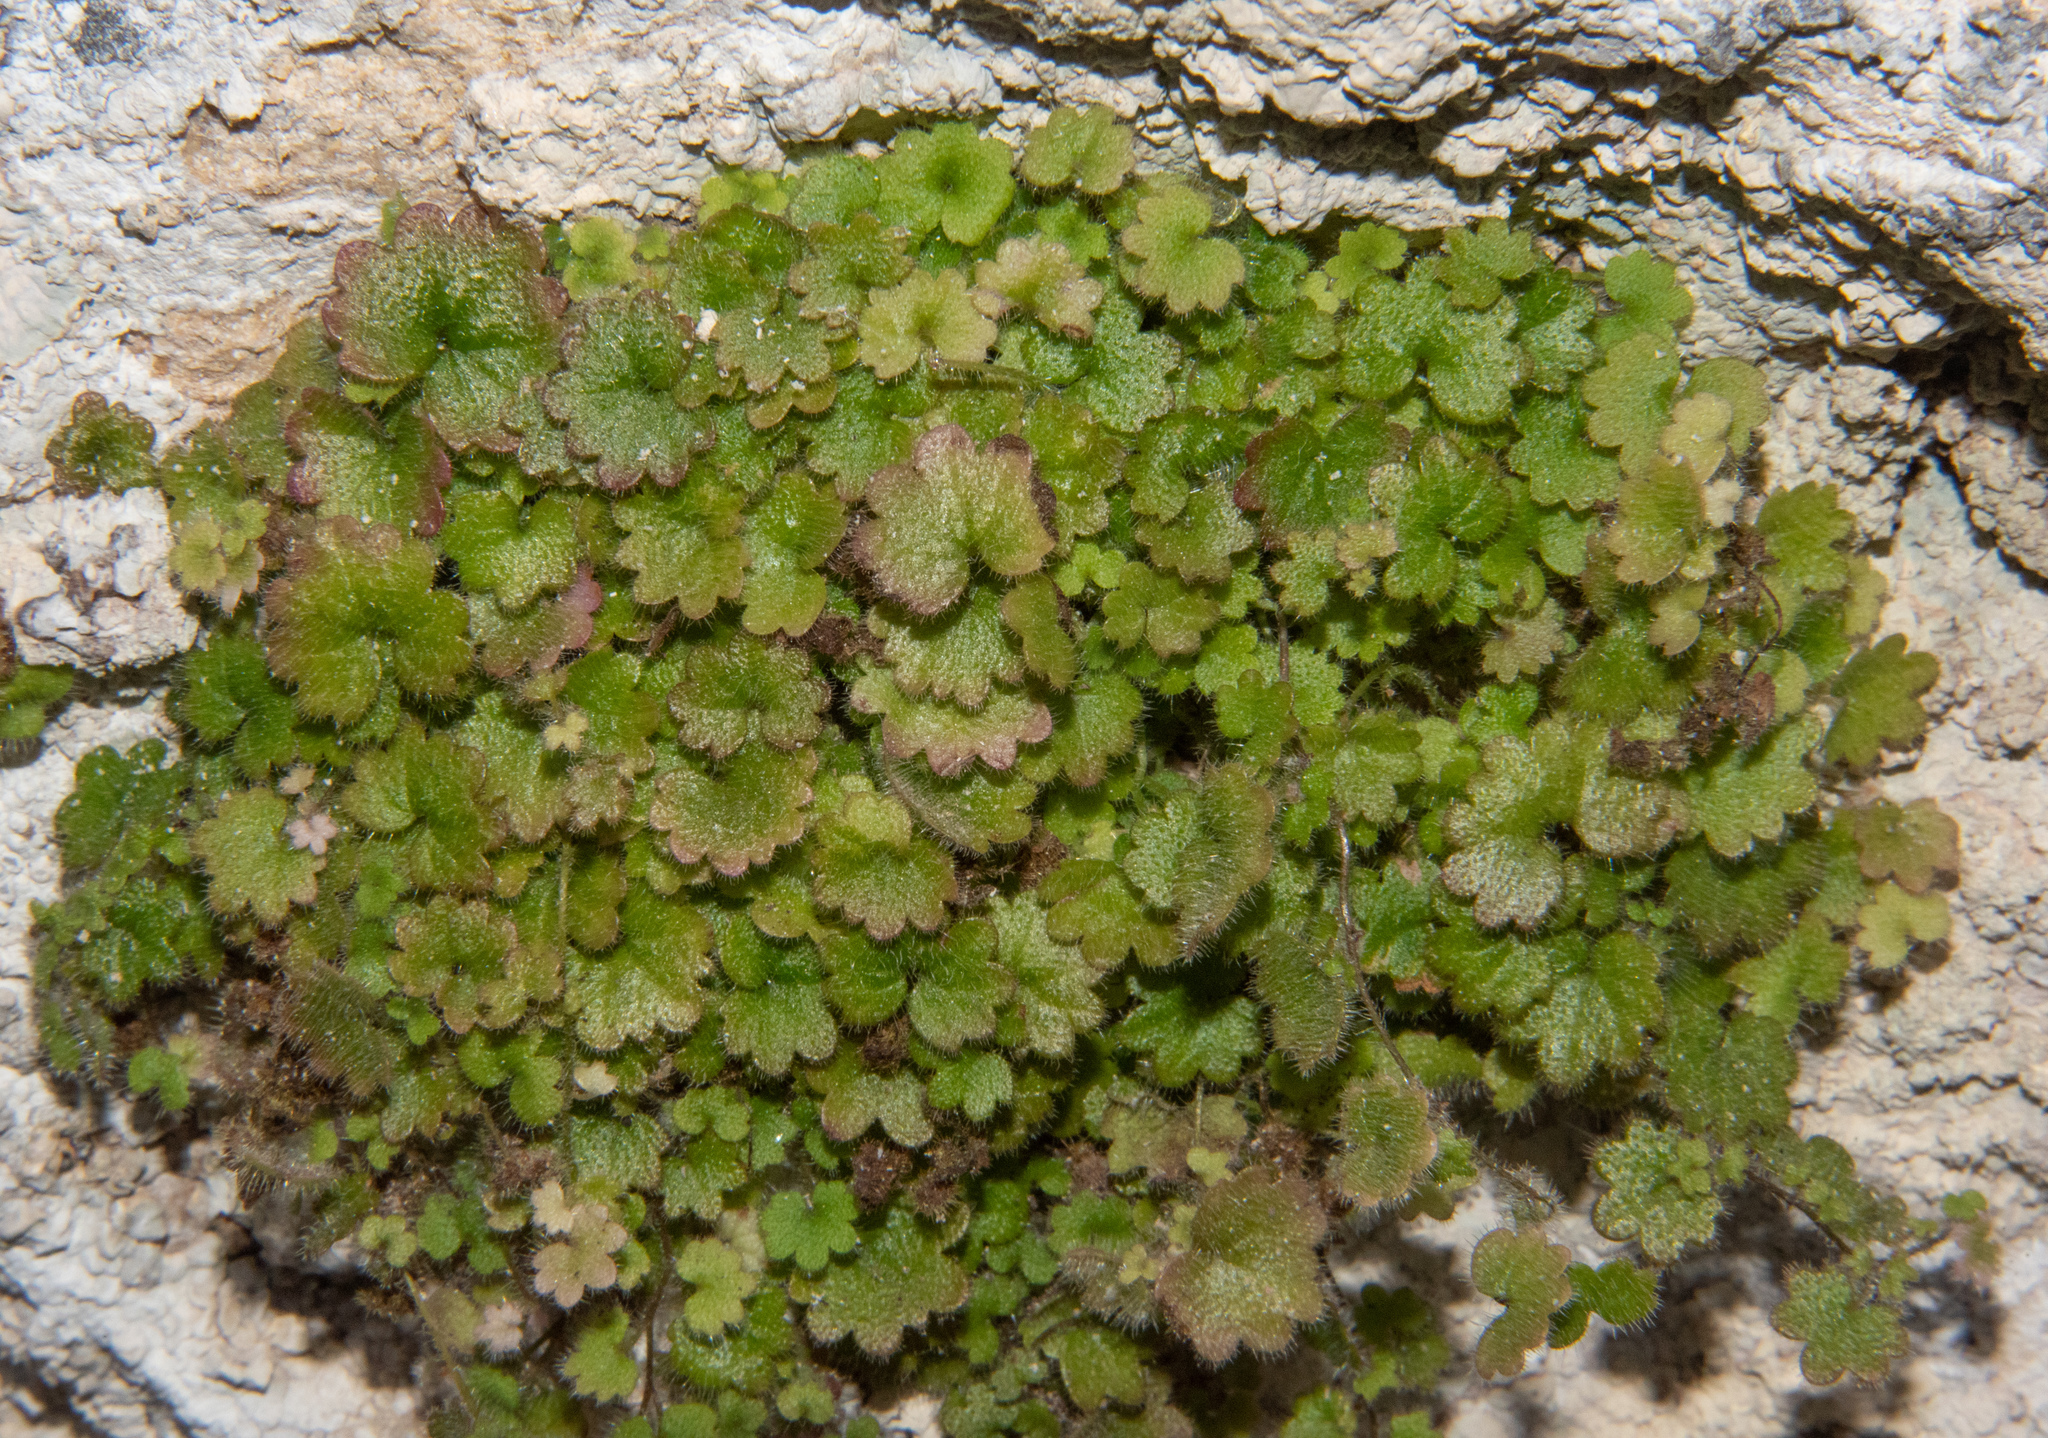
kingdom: Plantae
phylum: Tracheophyta
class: Magnoliopsida
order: Lamiales
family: Plantaginaceae
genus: Sibthorpia
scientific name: Sibthorpia africana
